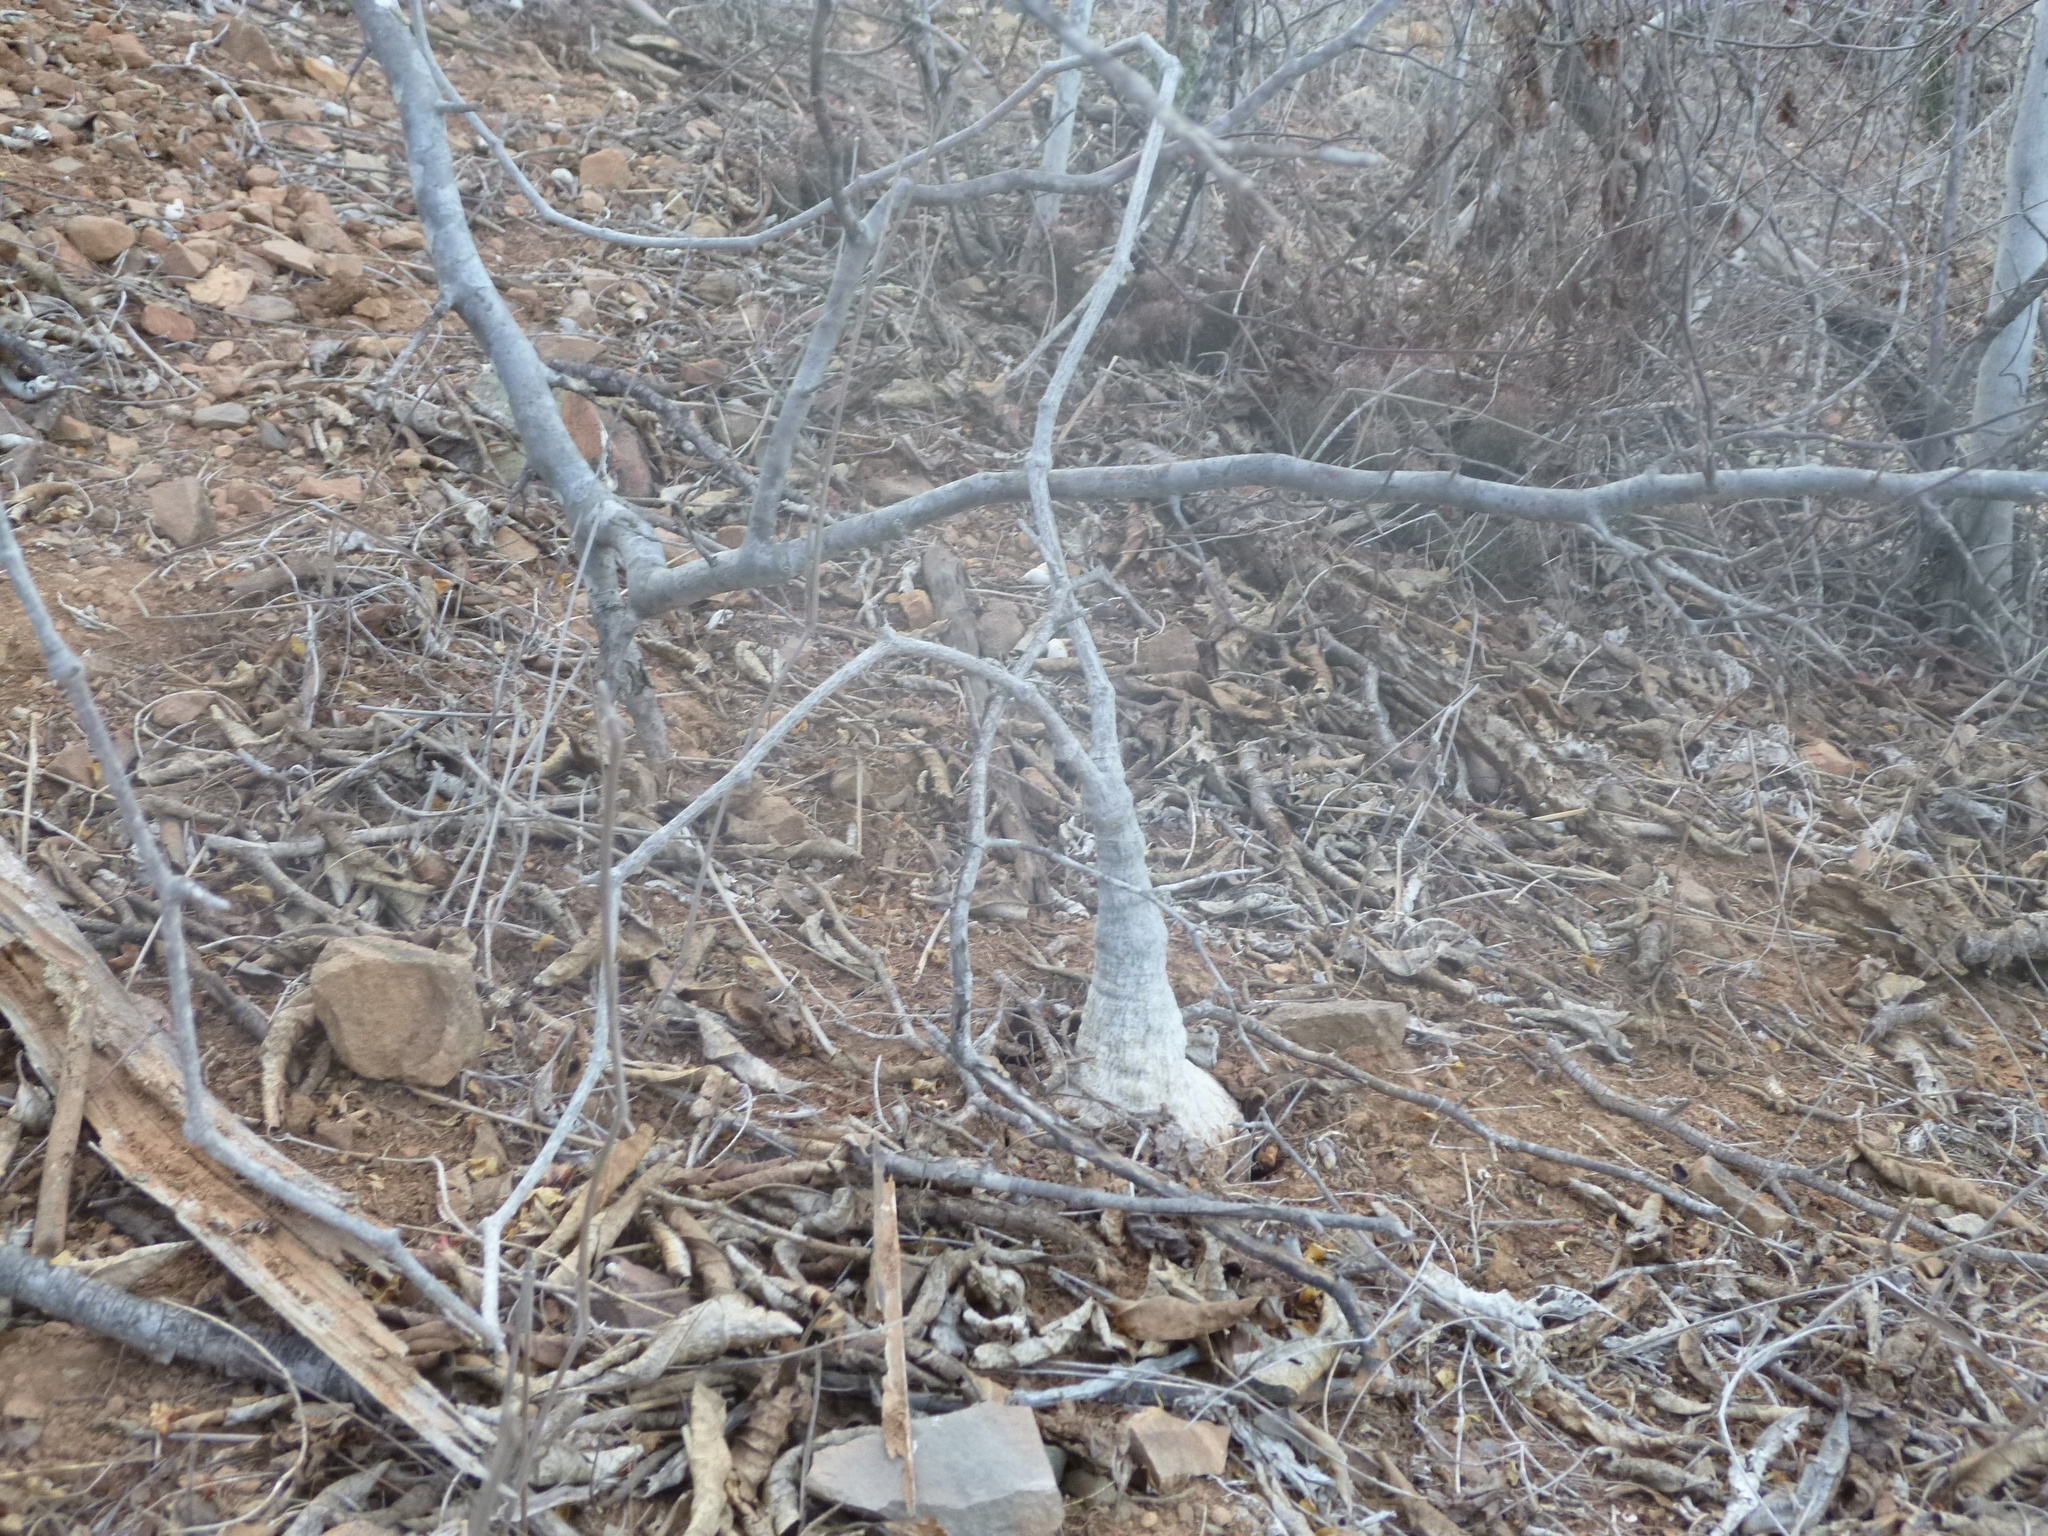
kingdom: Plantae
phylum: Tracheophyta
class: Magnoliopsida
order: Cucurbitales
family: Cucurbitaceae
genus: Ibervillea
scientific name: Ibervillea sonorae
